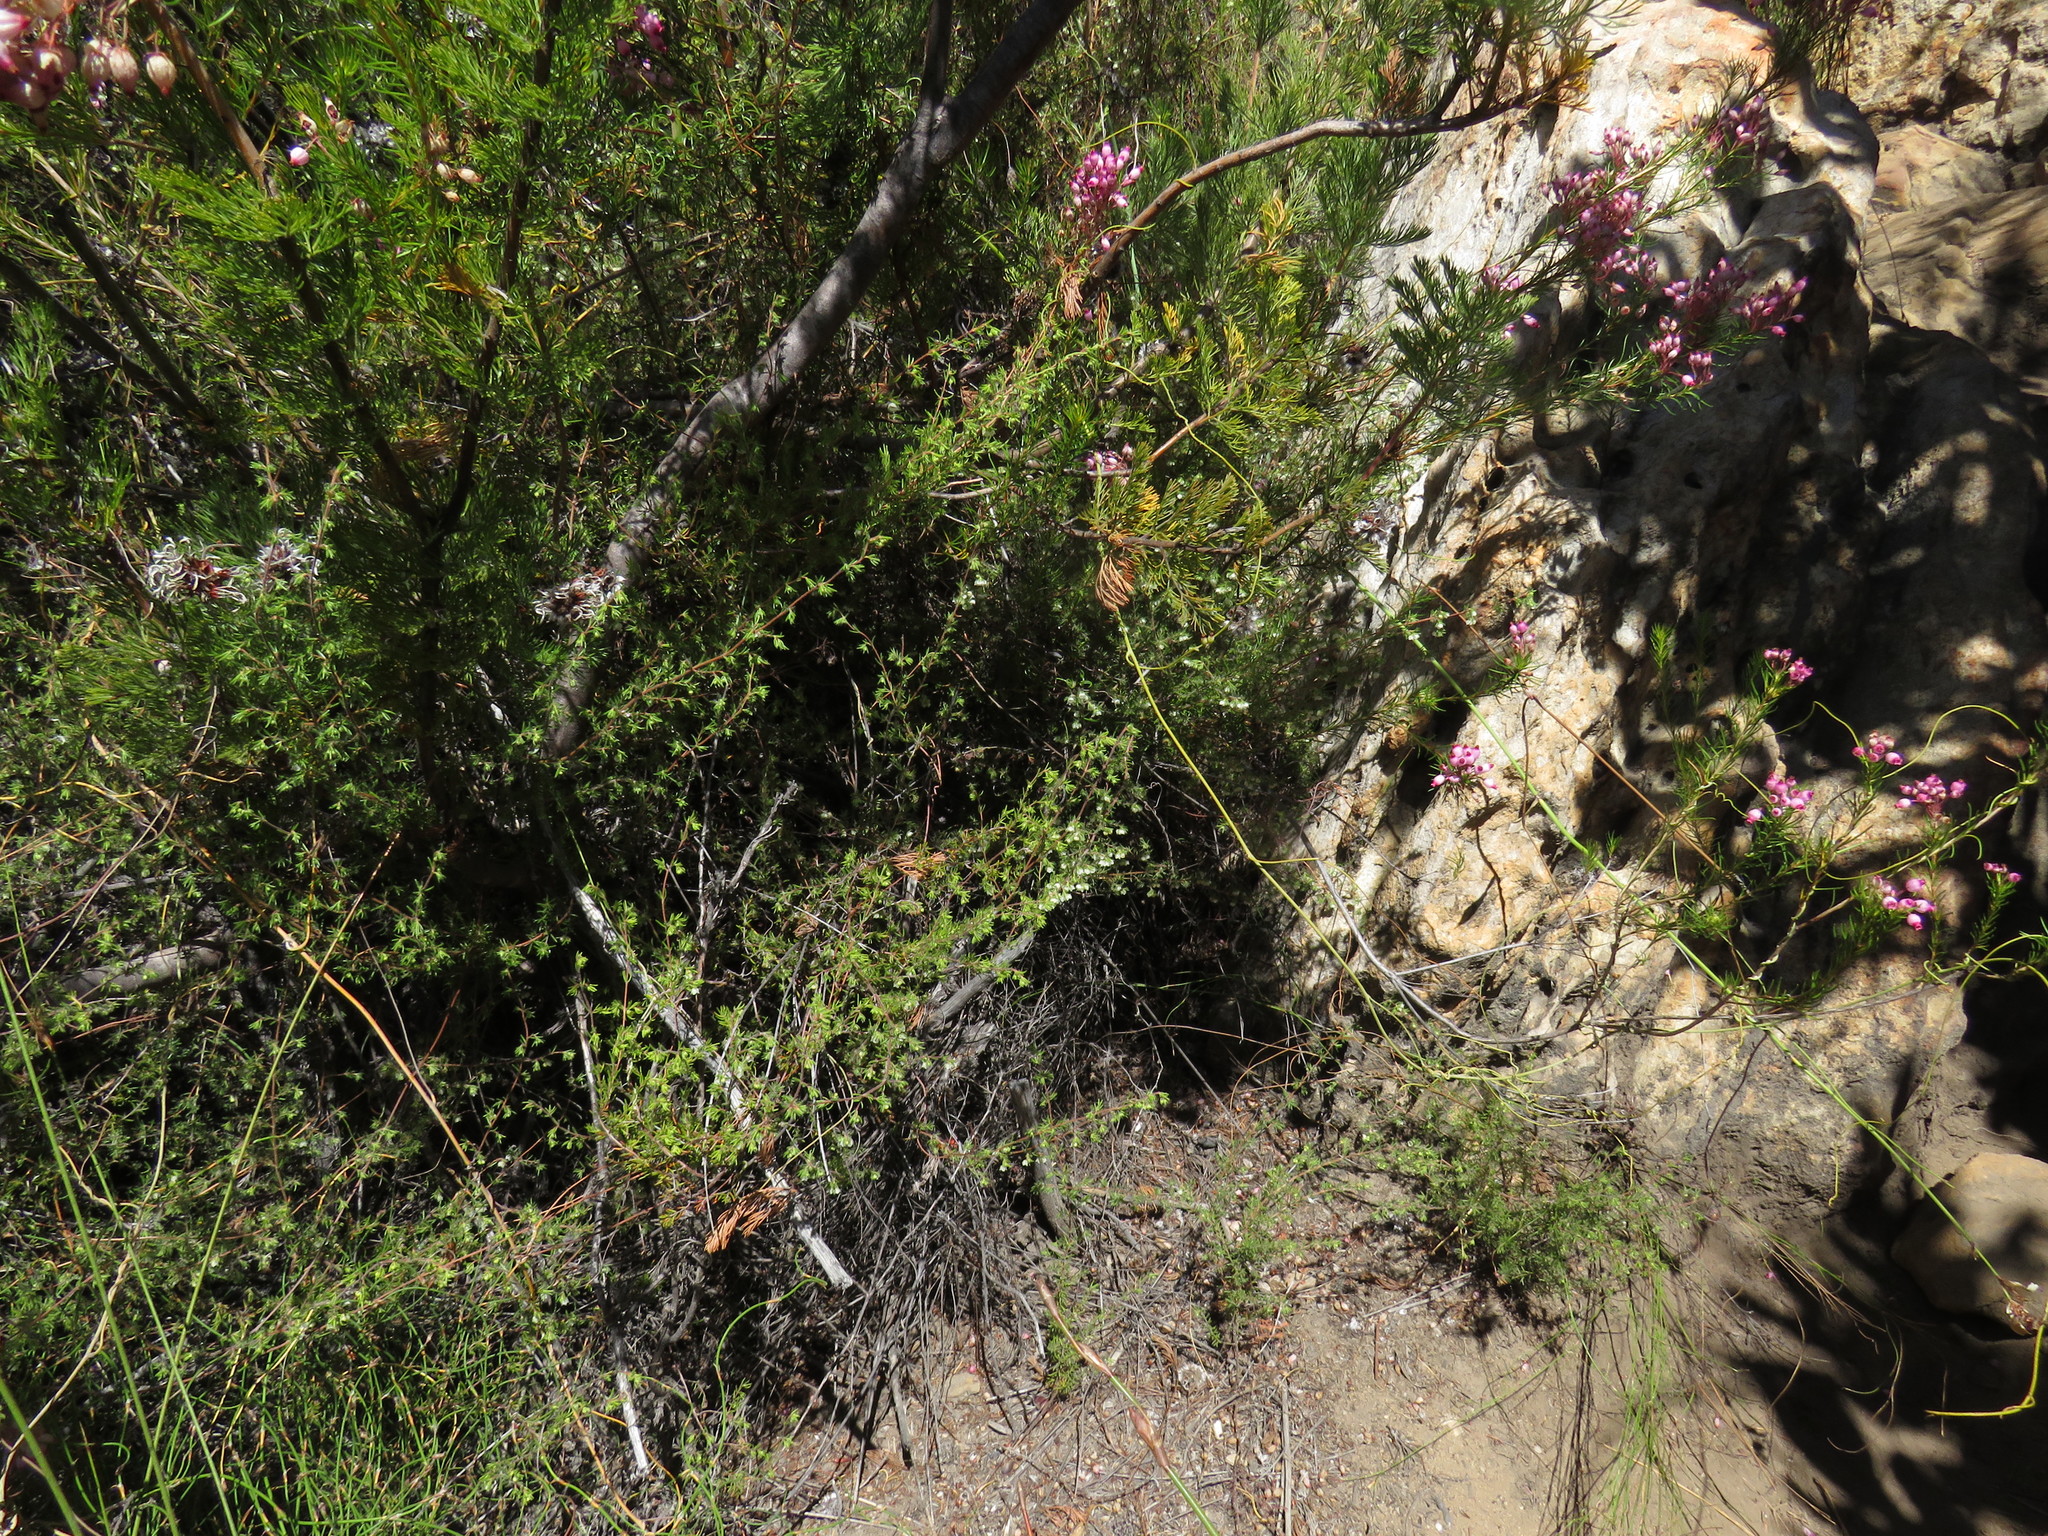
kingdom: Plantae
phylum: Tracheophyta
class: Magnoliopsida
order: Ericales
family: Ericaceae
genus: Erica
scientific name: Erica distorta
